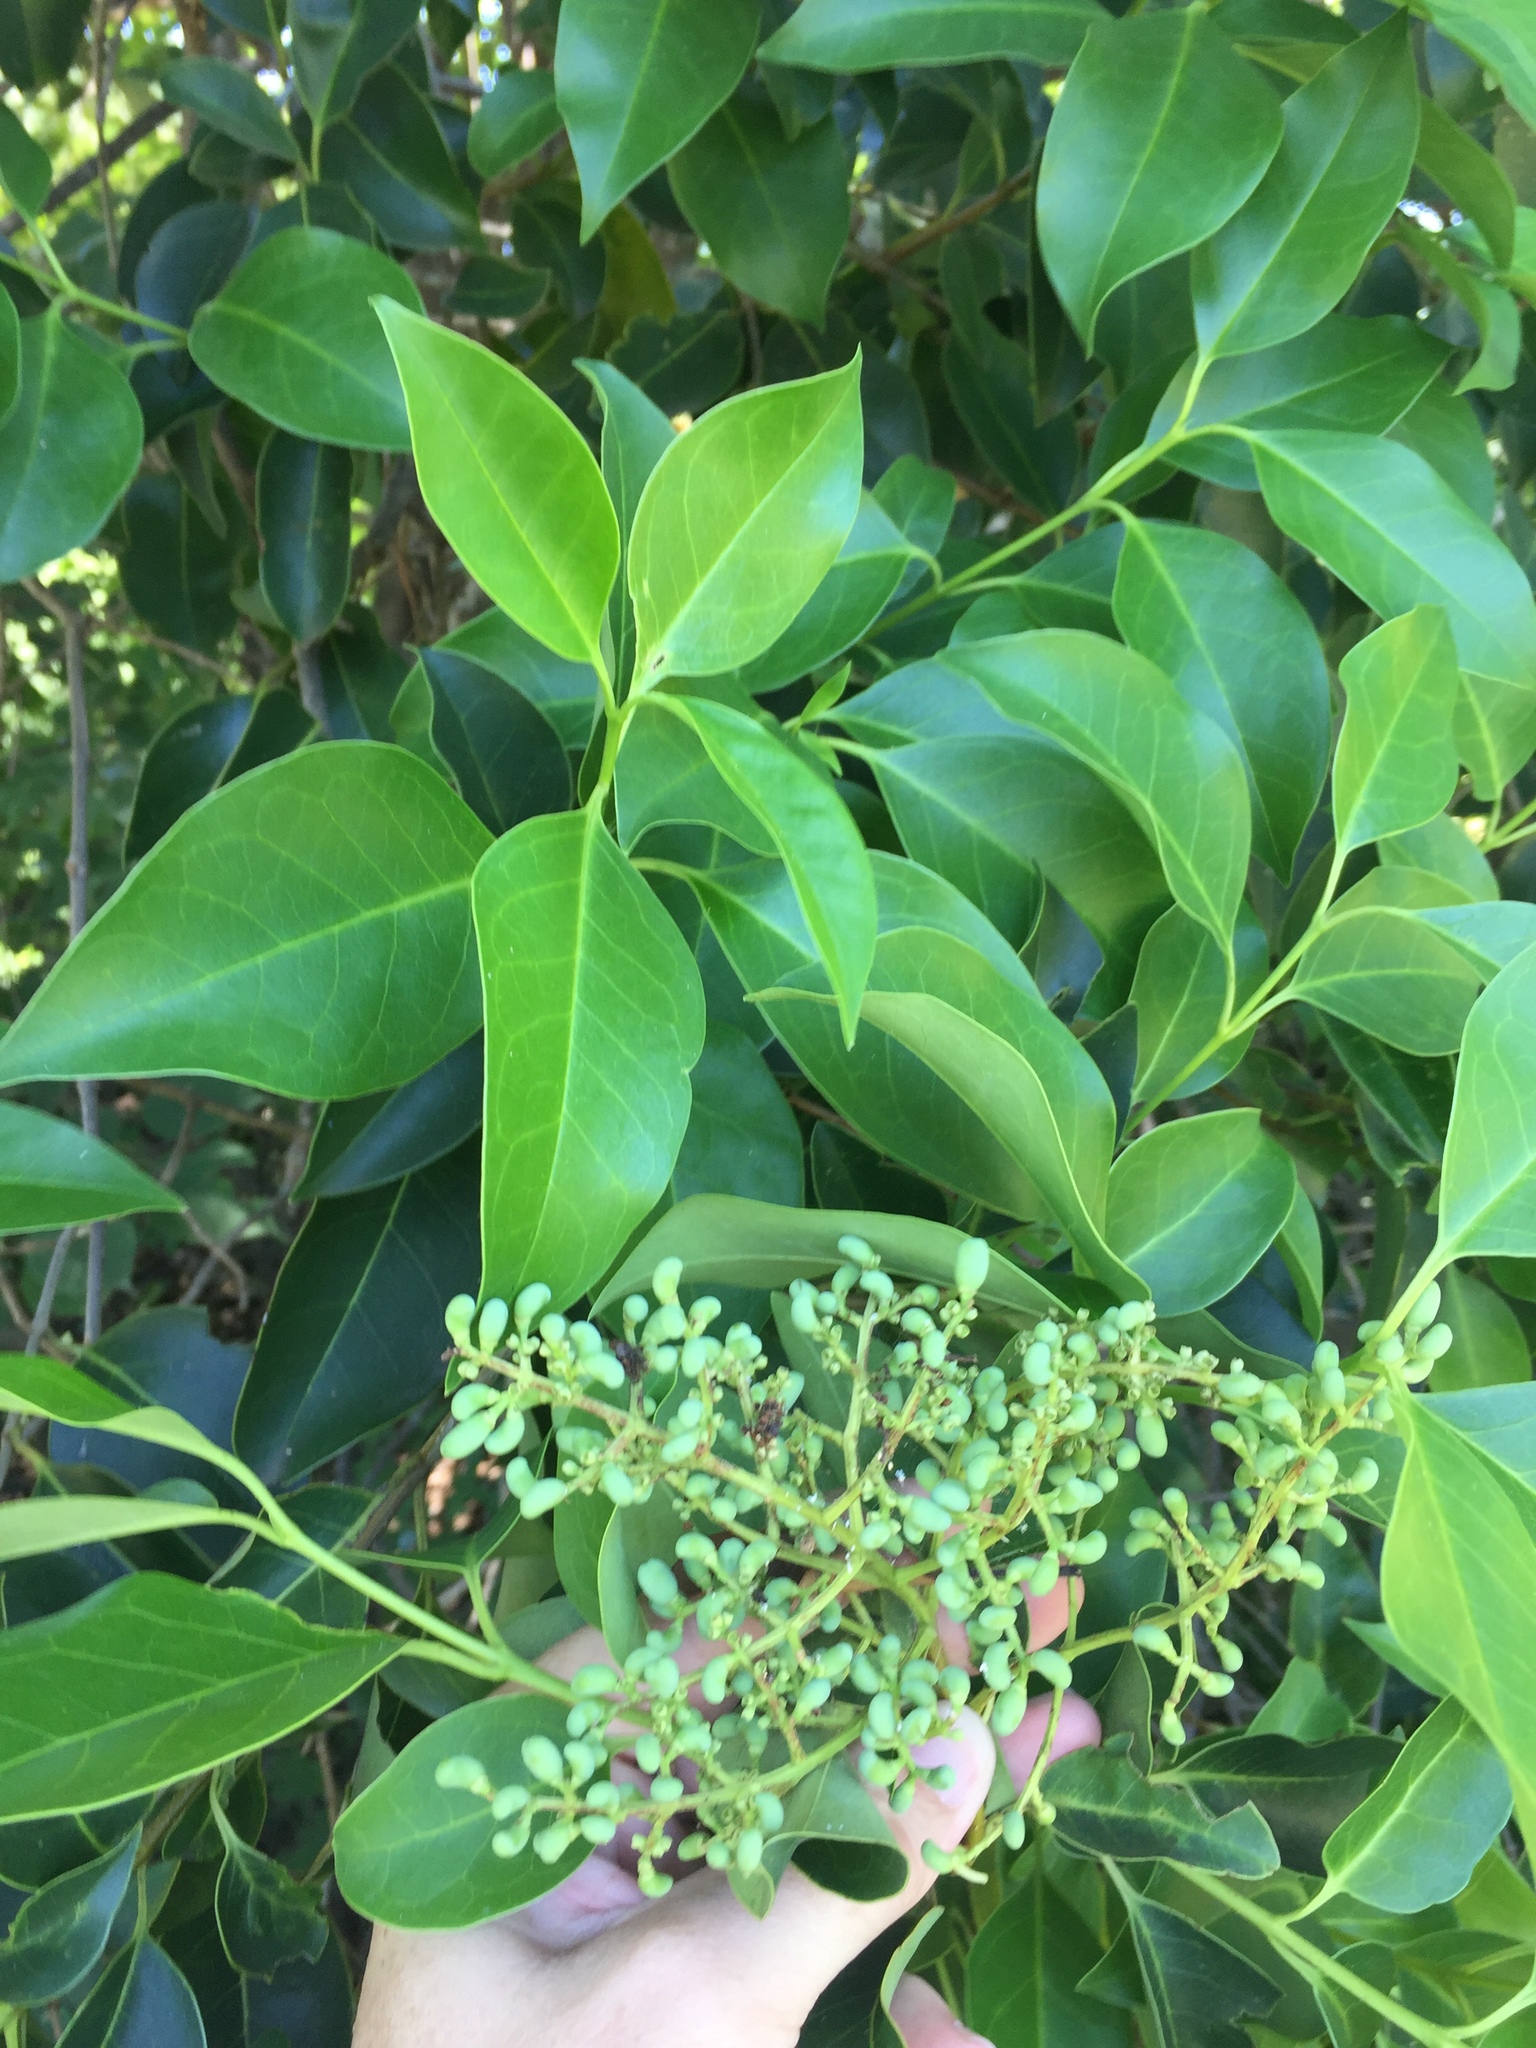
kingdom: Plantae
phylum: Tracheophyta
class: Magnoliopsida
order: Lamiales
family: Oleaceae
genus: Ligustrum
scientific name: Ligustrum lucidum
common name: Glossy privet
